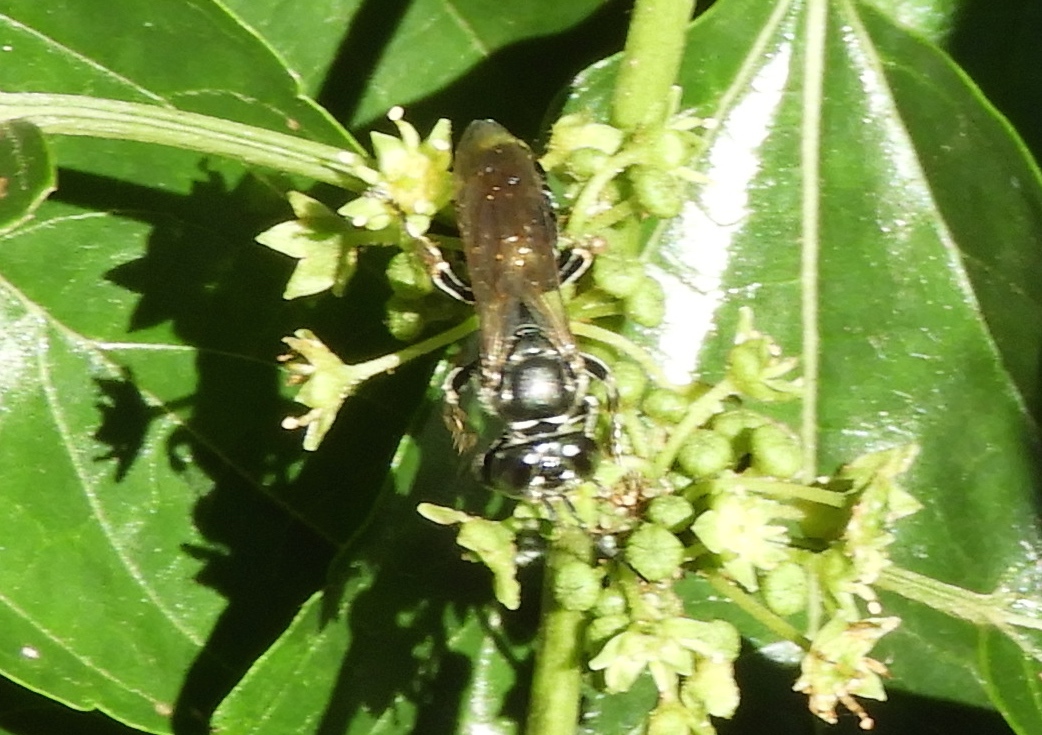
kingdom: Animalia
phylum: Arthropoda
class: Insecta
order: Hymenoptera
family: Crabronidae
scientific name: Crabronidae
